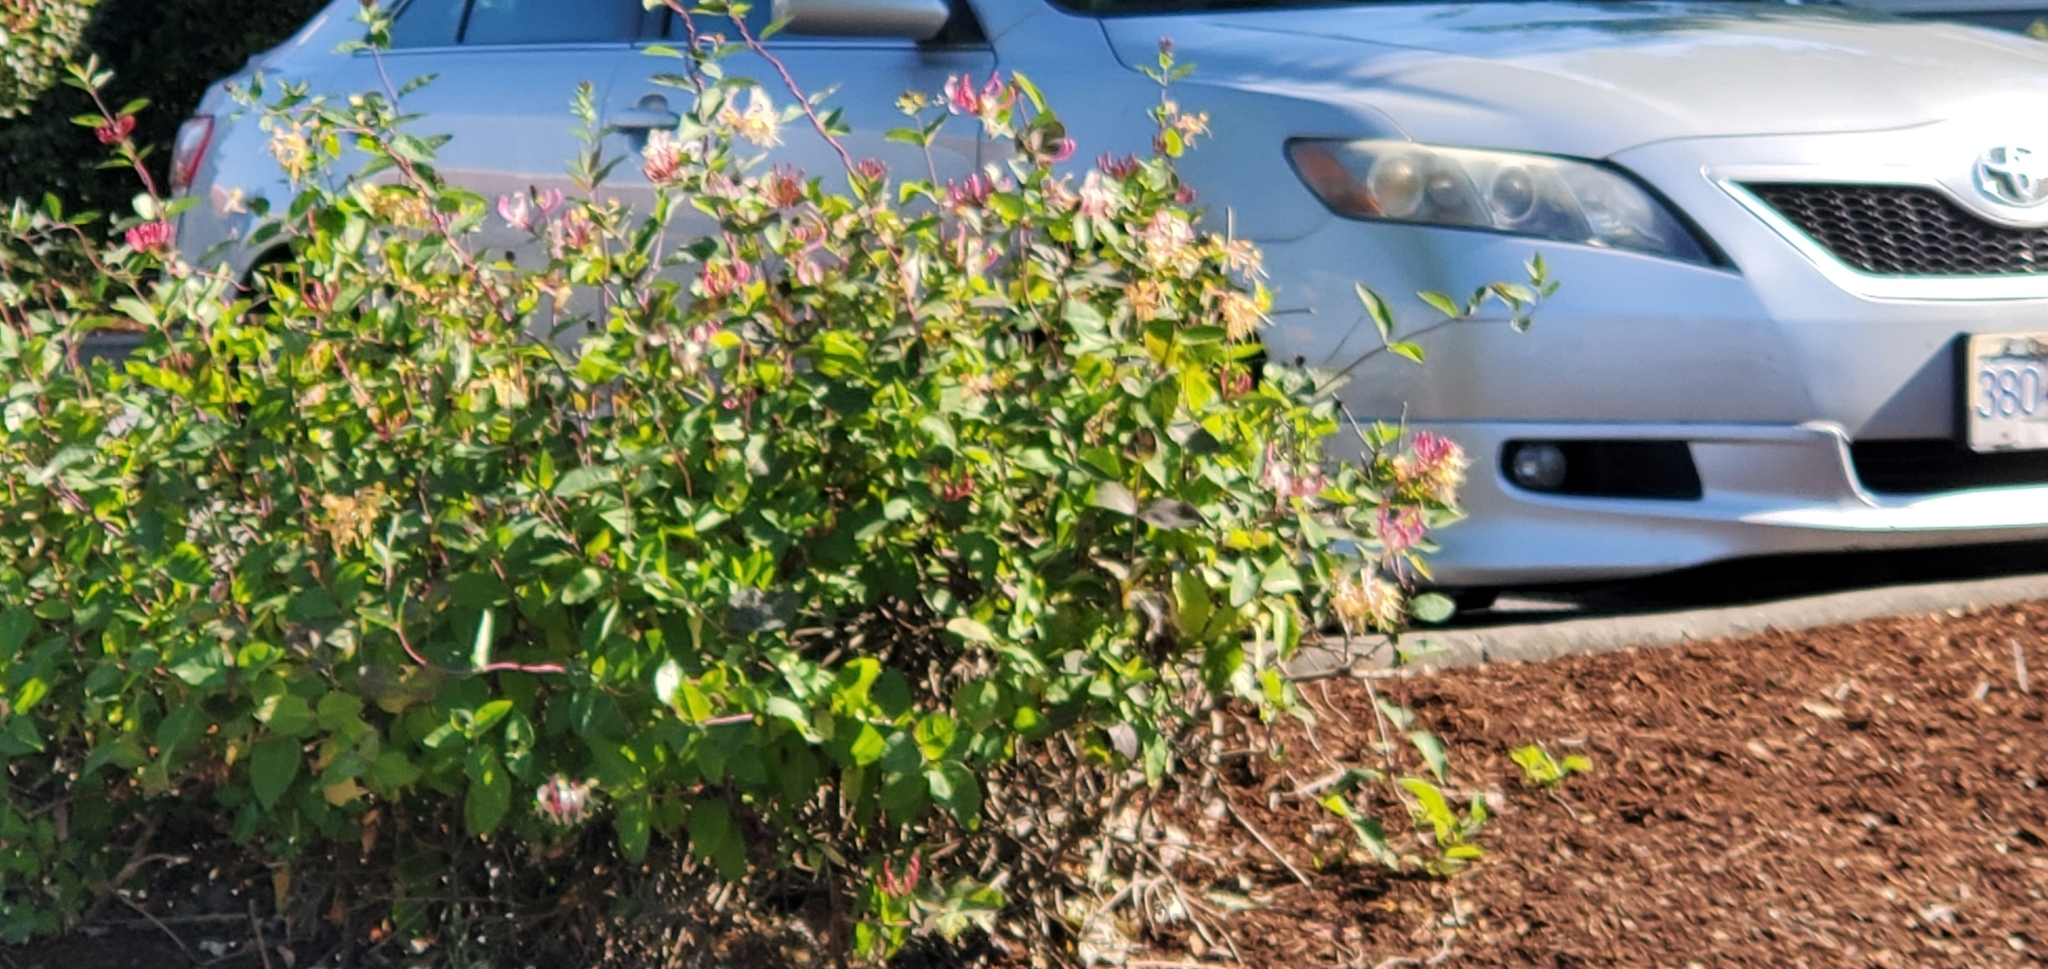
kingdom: Plantae
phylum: Tracheophyta
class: Magnoliopsida
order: Dipsacales
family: Caprifoliaceae
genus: Lonicera
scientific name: Lonicera periclymenum
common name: European honeysuckle
